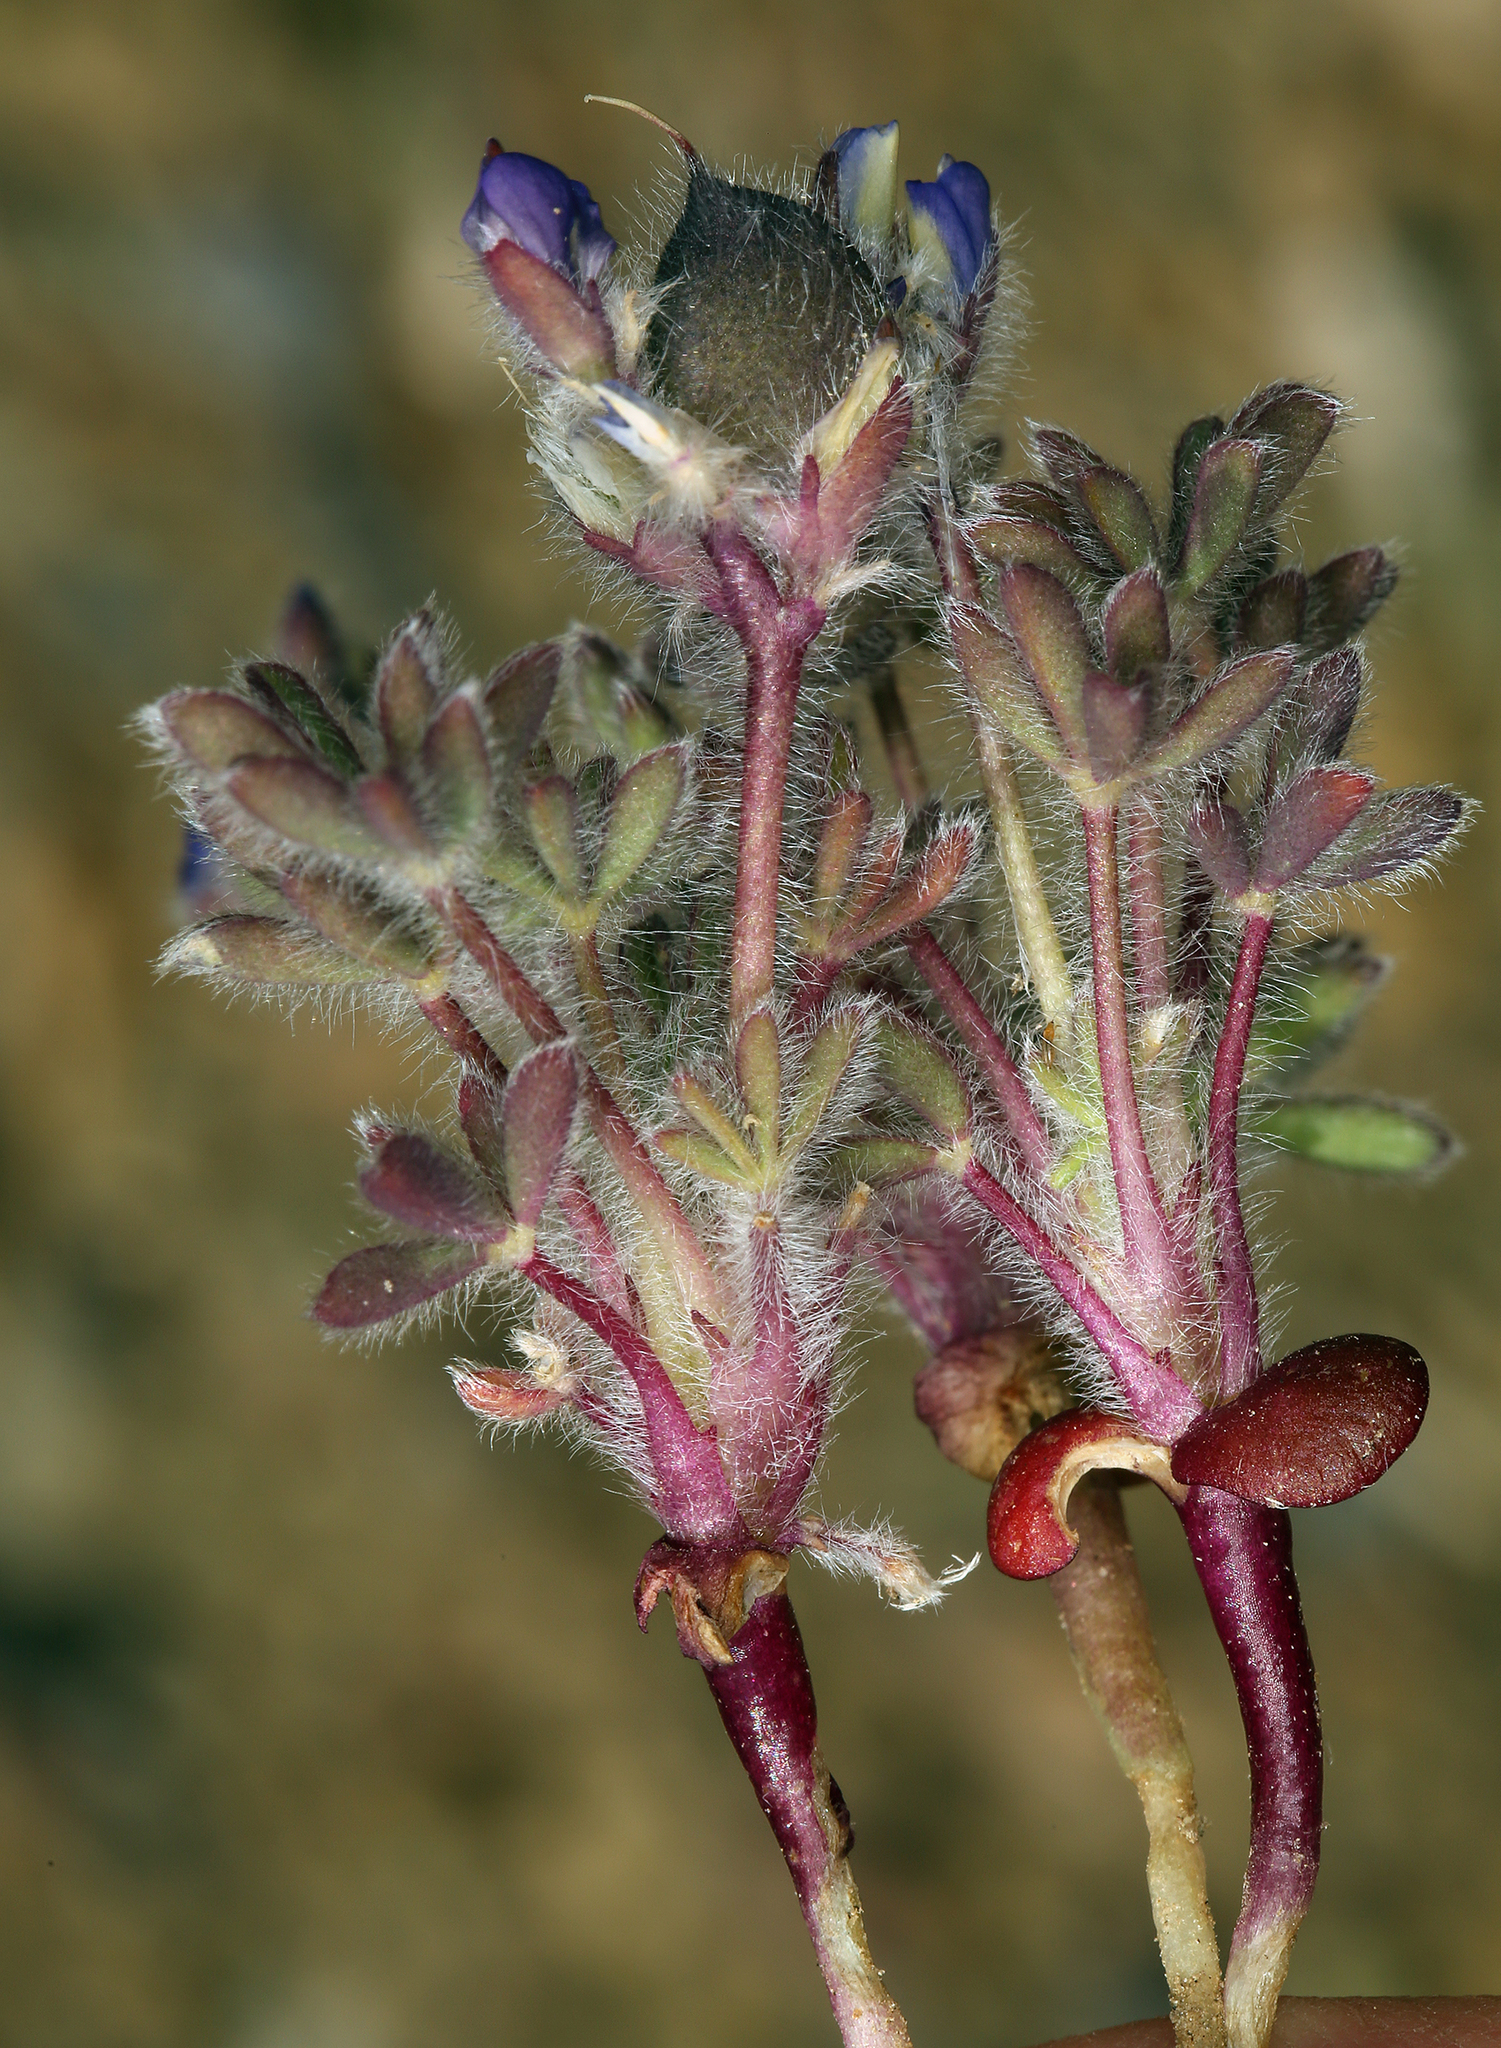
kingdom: Plantae
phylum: Tracheophyta
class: Magnoliopsida
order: Fabales
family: Fabaceae
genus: Lupinus
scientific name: Lupinus brevicaulis
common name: Sand lupine
